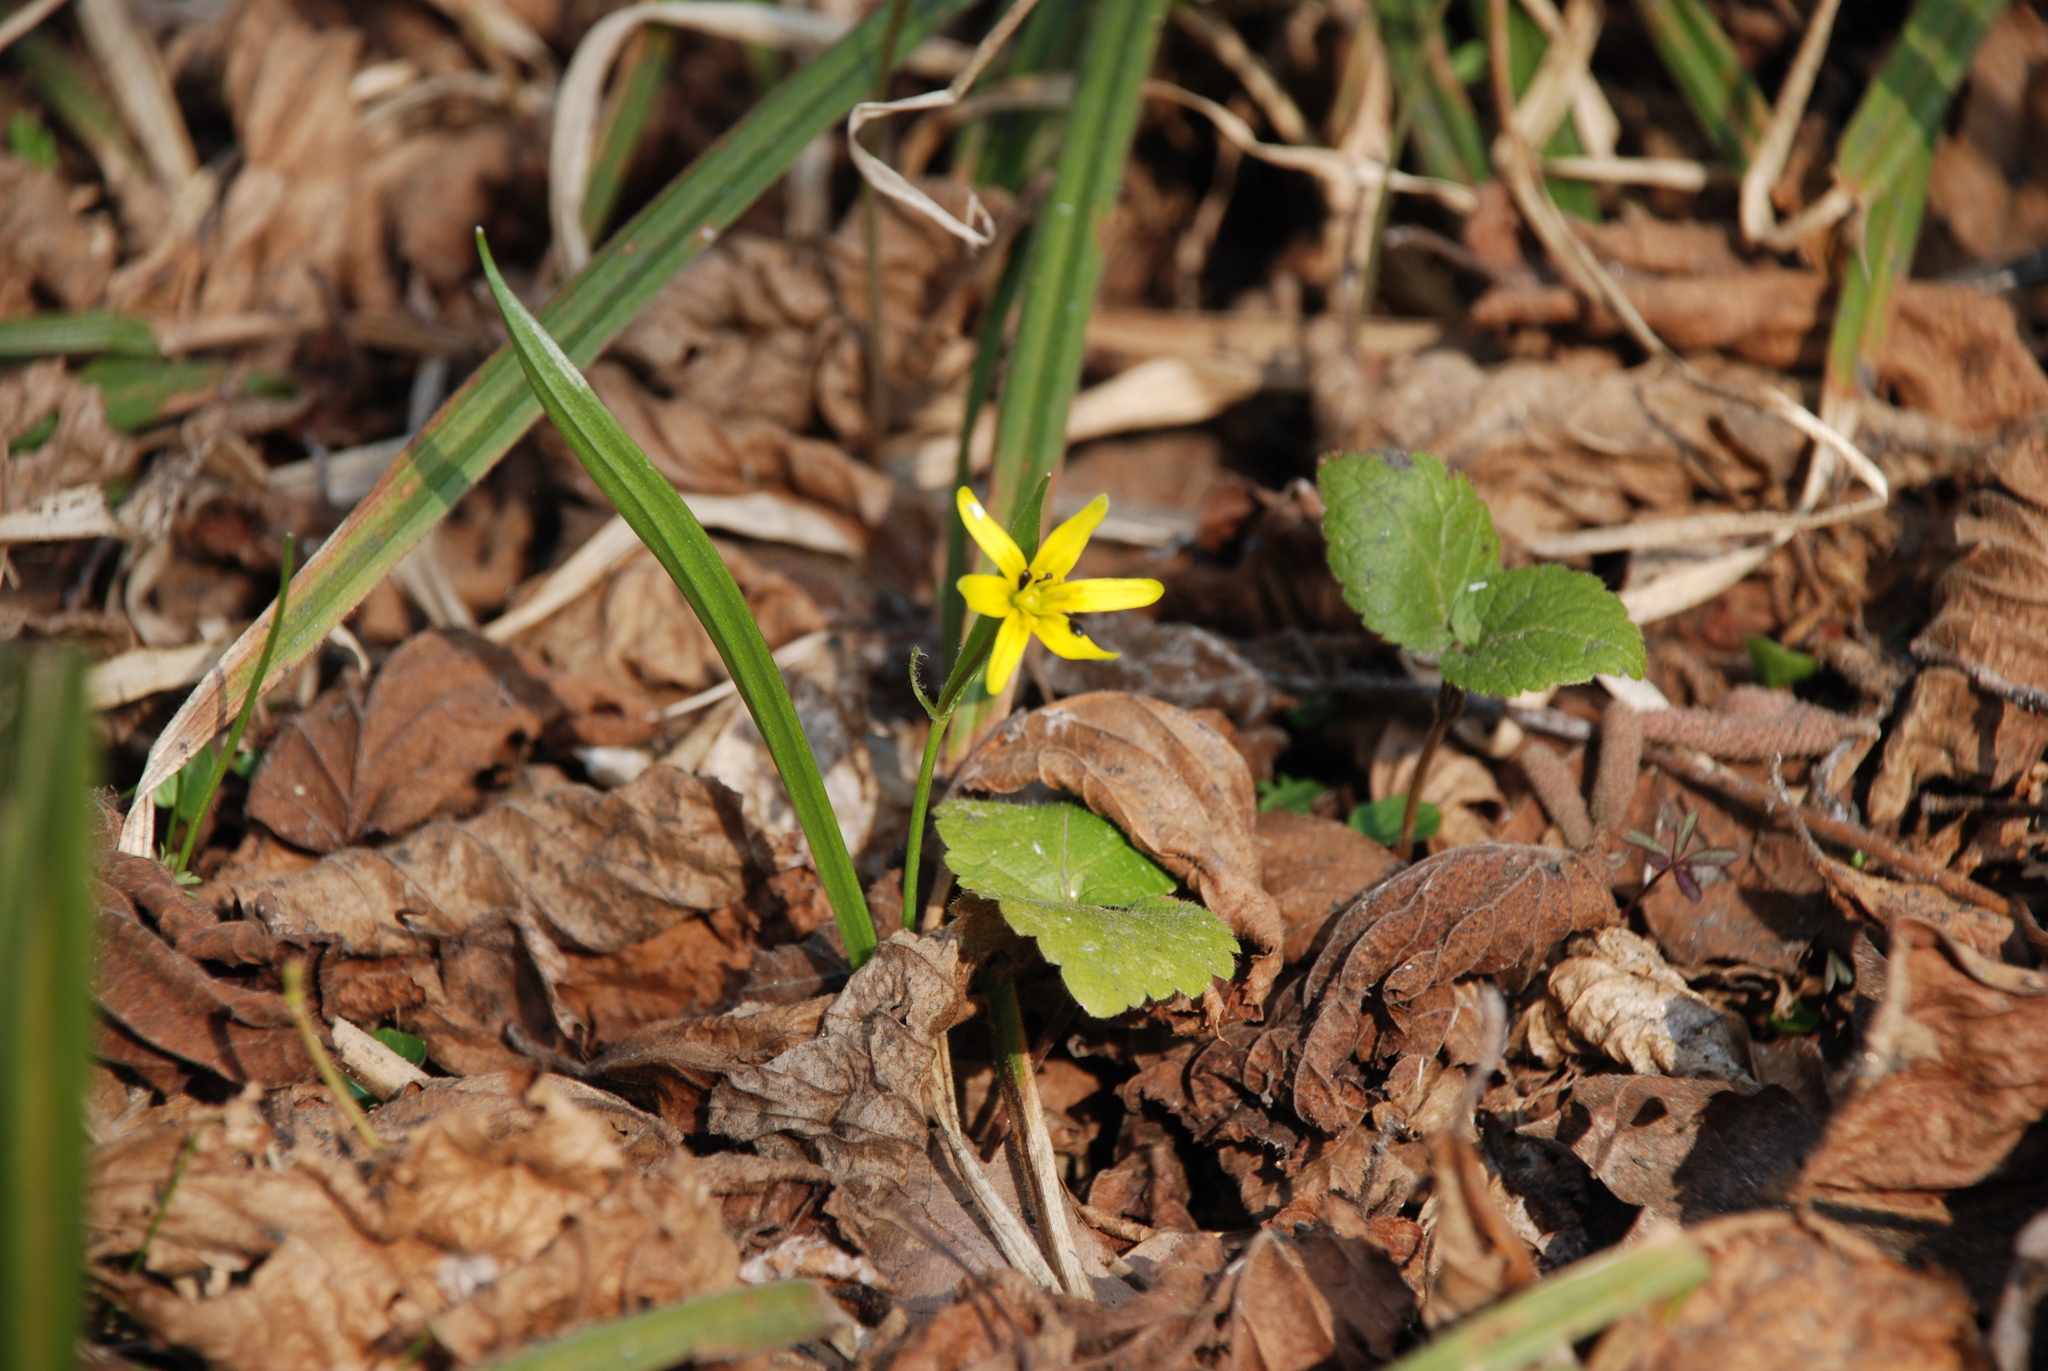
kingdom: Plantae
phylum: Tracheophyta
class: Liliopsida
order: Liliales
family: Liliaceae
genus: Gagea
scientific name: Gagea lutea
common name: Yellow star-of-bethlehem
